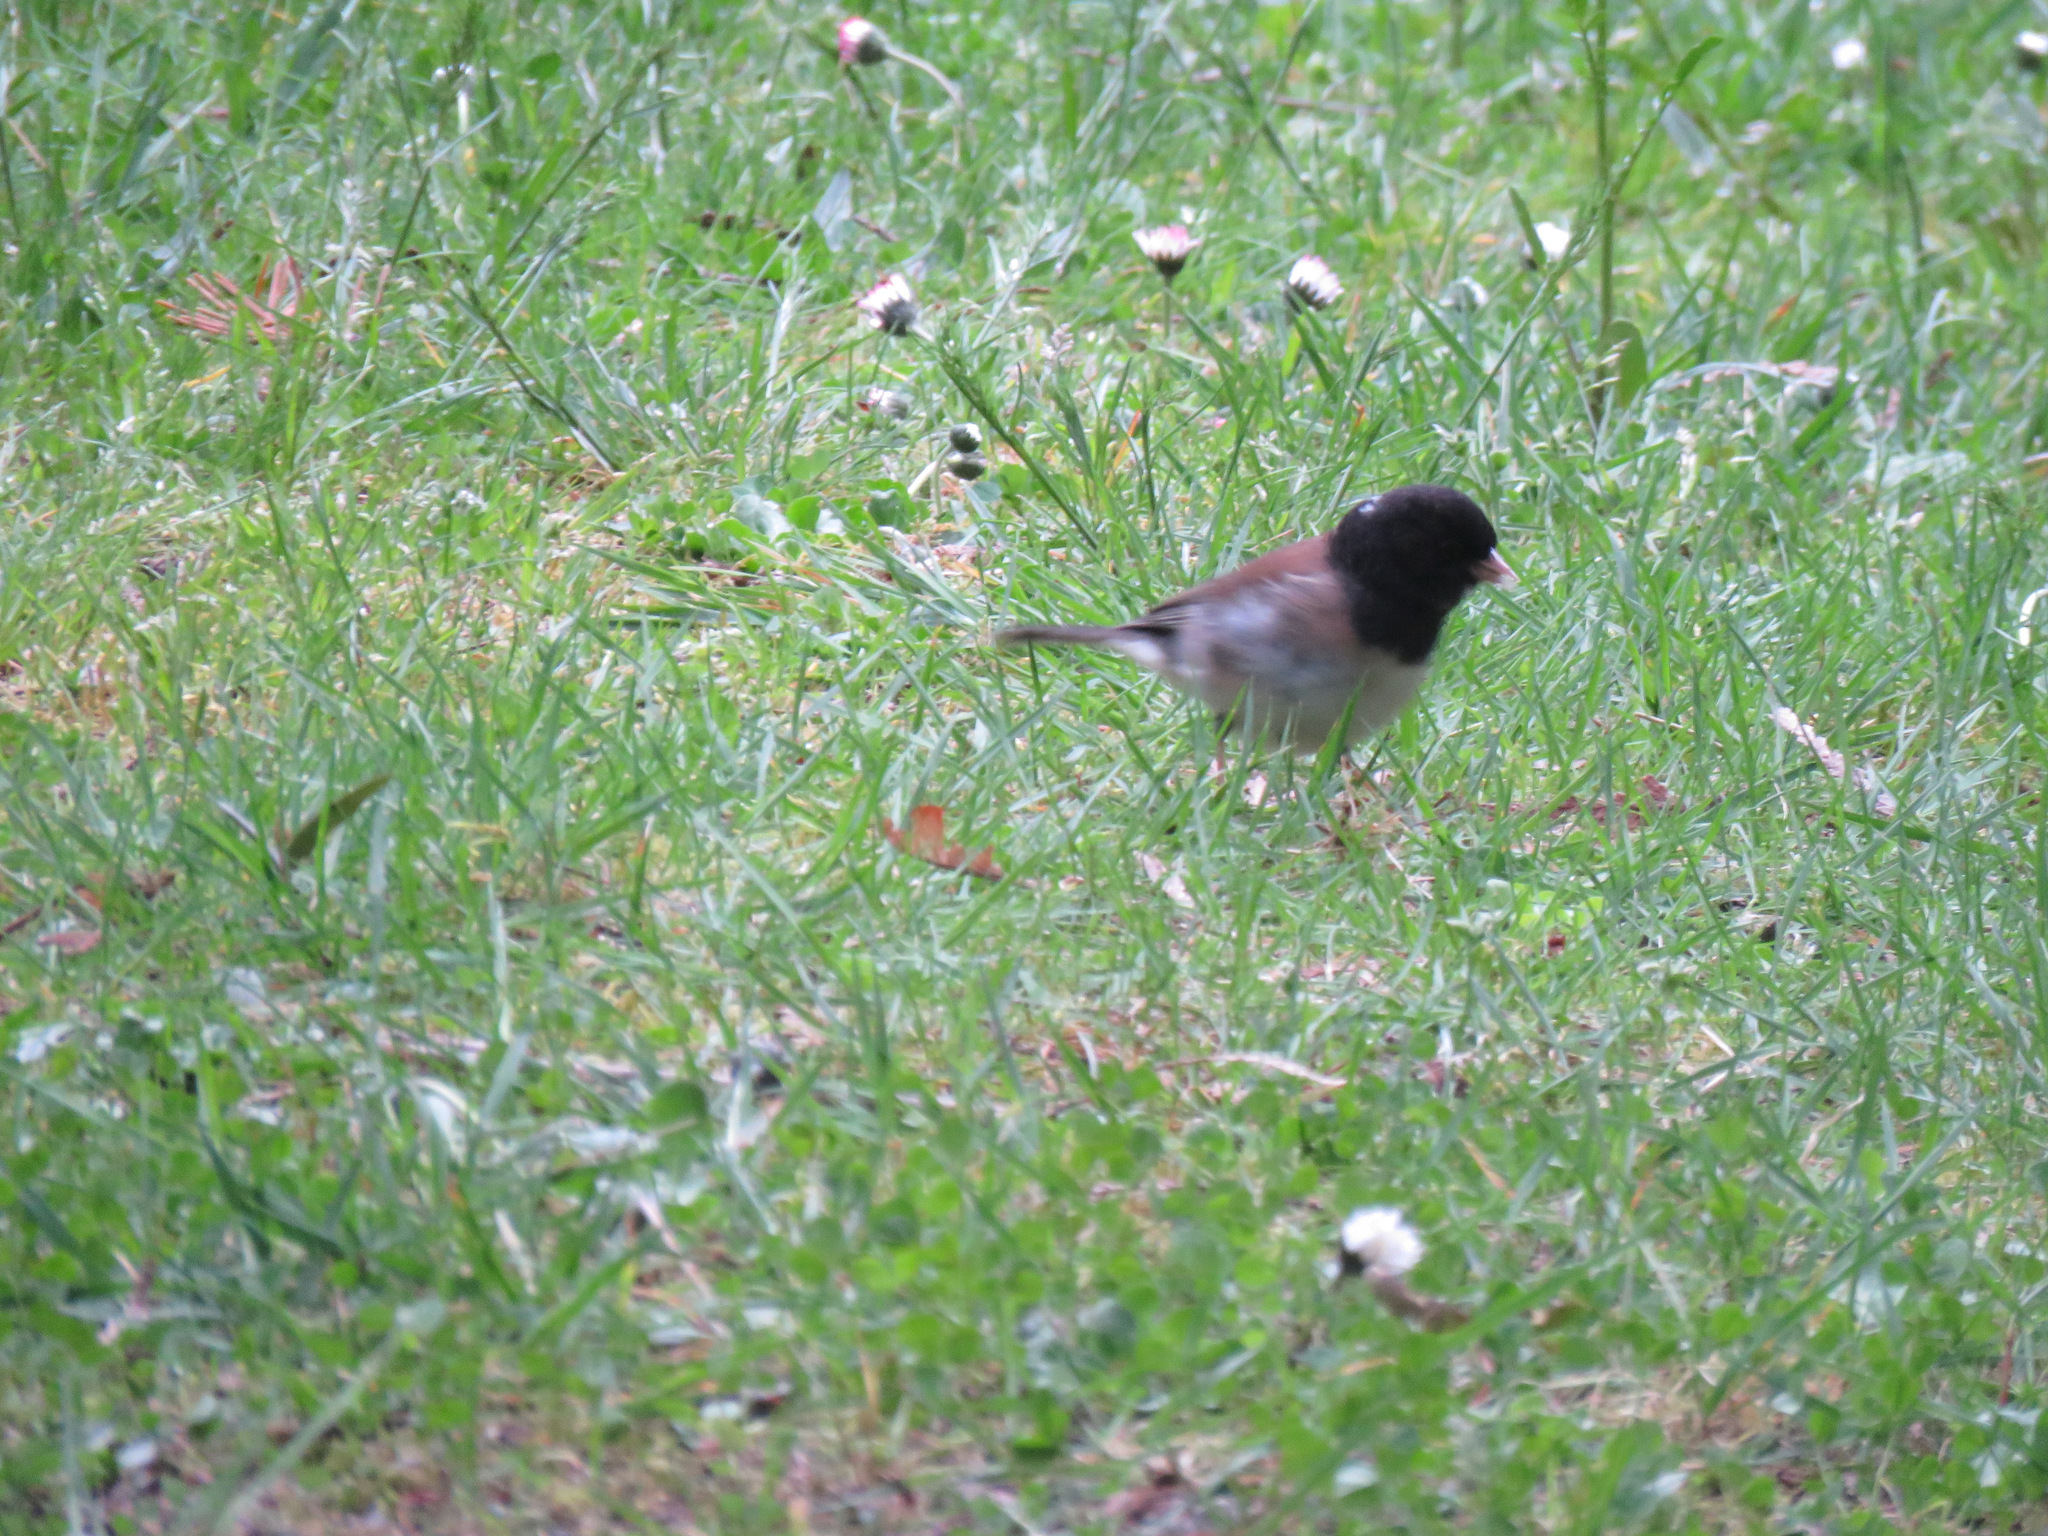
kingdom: Animalia
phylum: Chordata
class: Aves
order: Passeriformes
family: Passerellidae
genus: Junco
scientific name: Junco hyemalis
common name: Dark-eyed junco
